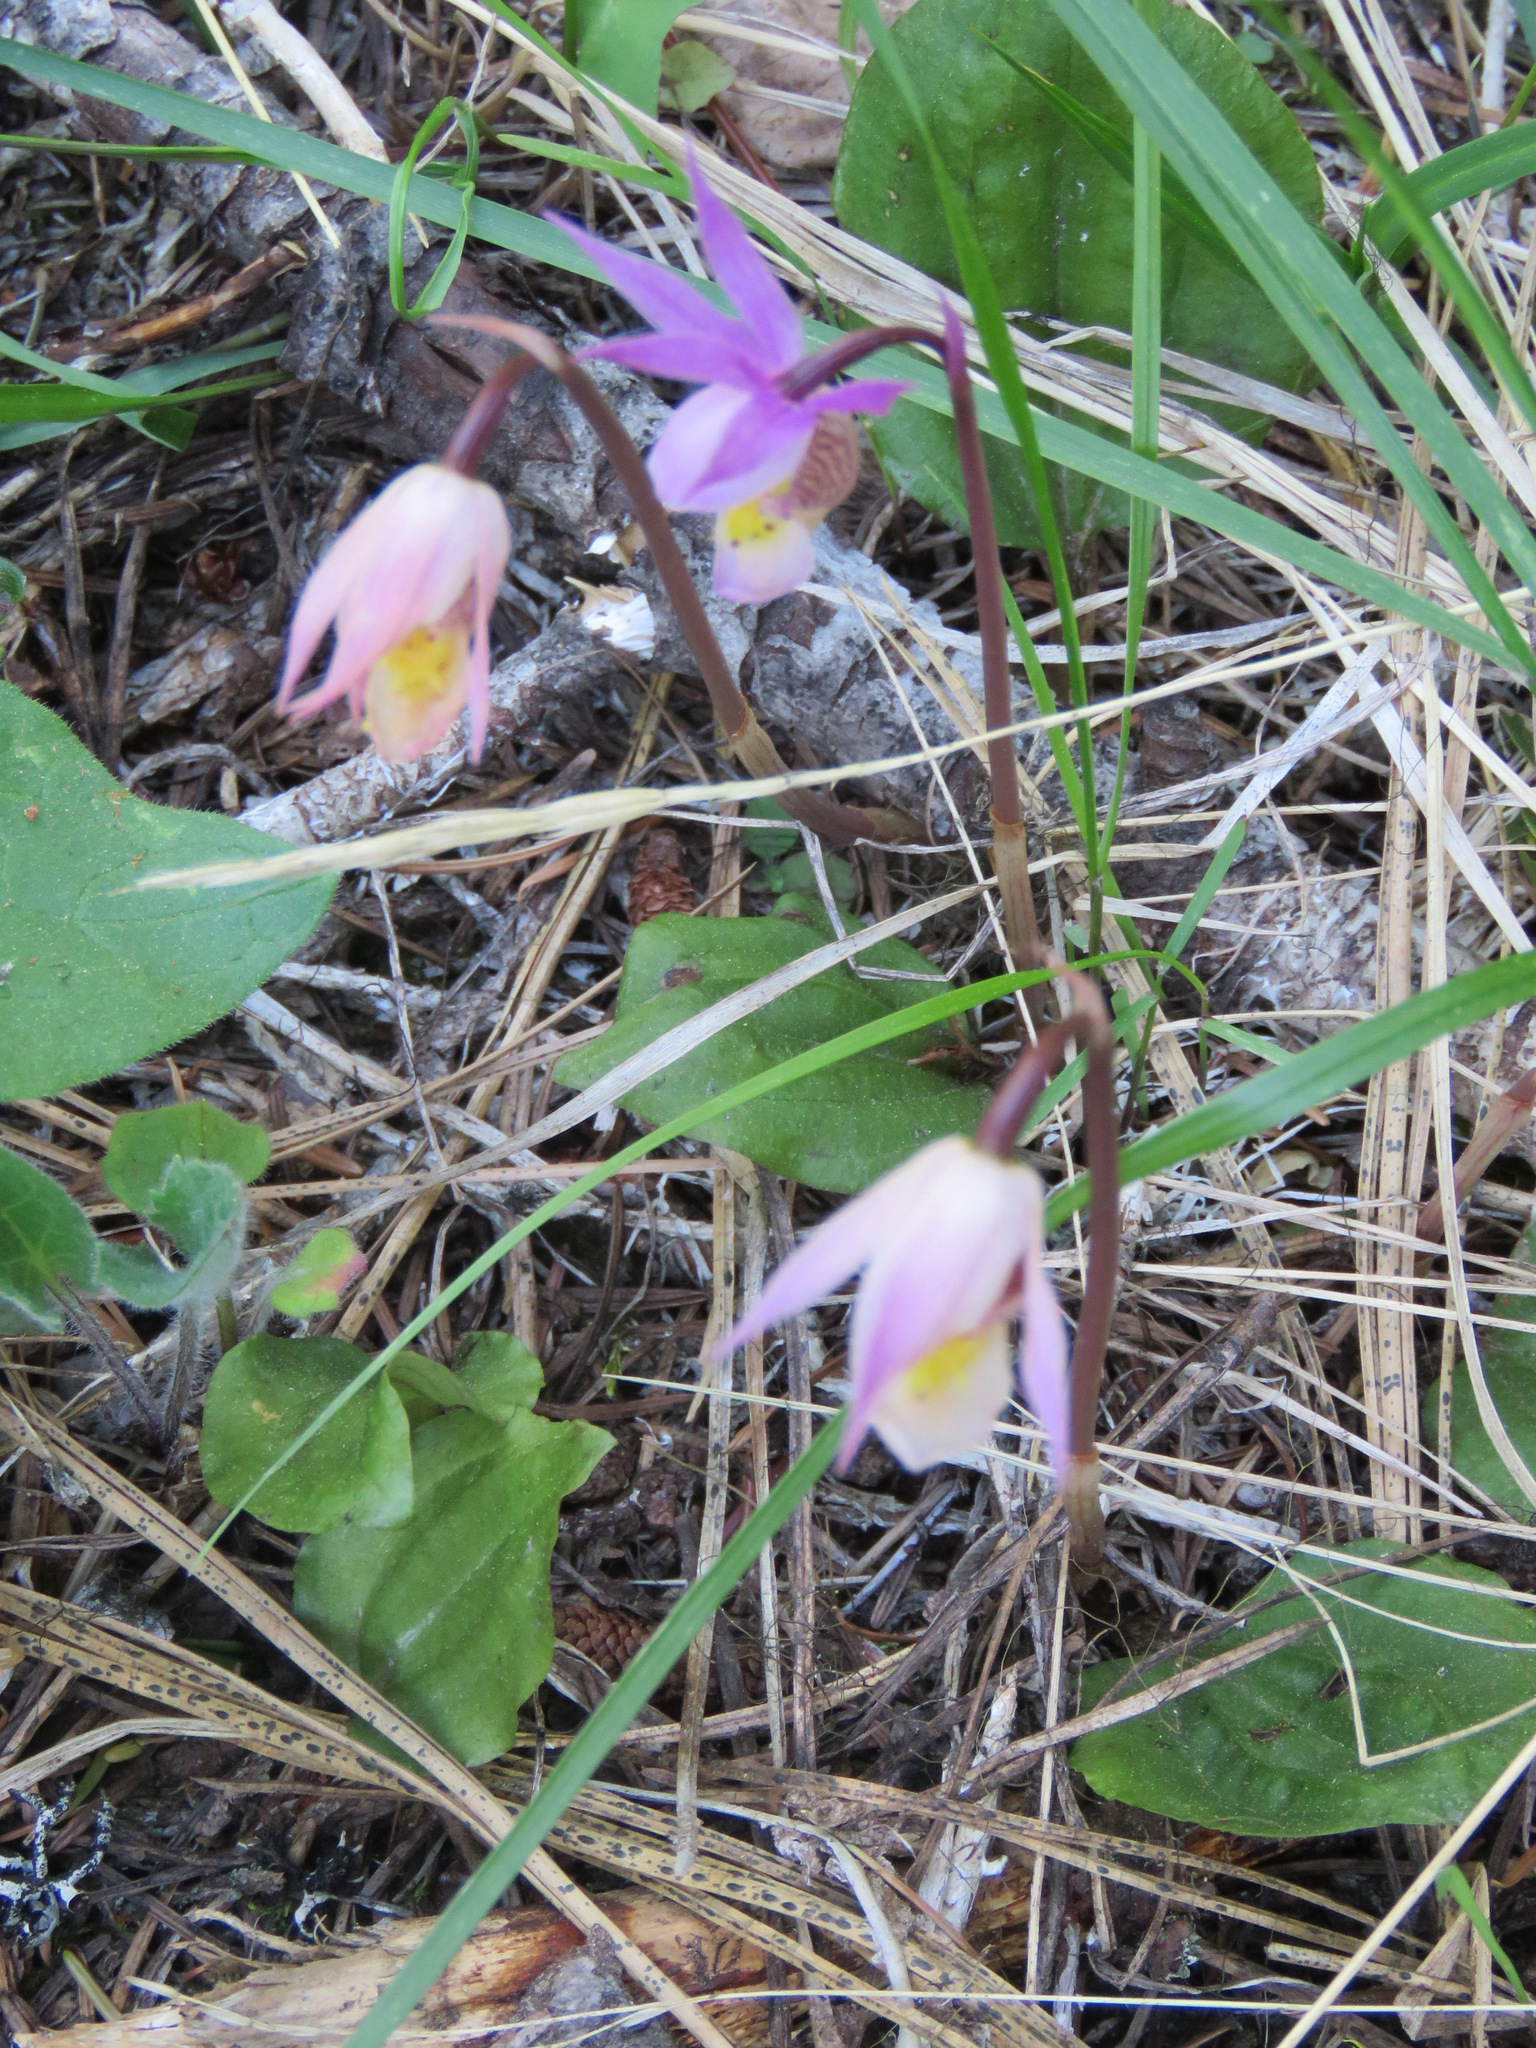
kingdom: Plantae
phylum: Tracheophyta
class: Liliopsida
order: Asparagales
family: Orchidaceae
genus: Calypso
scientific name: Calypso bulbosa
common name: Calypso
